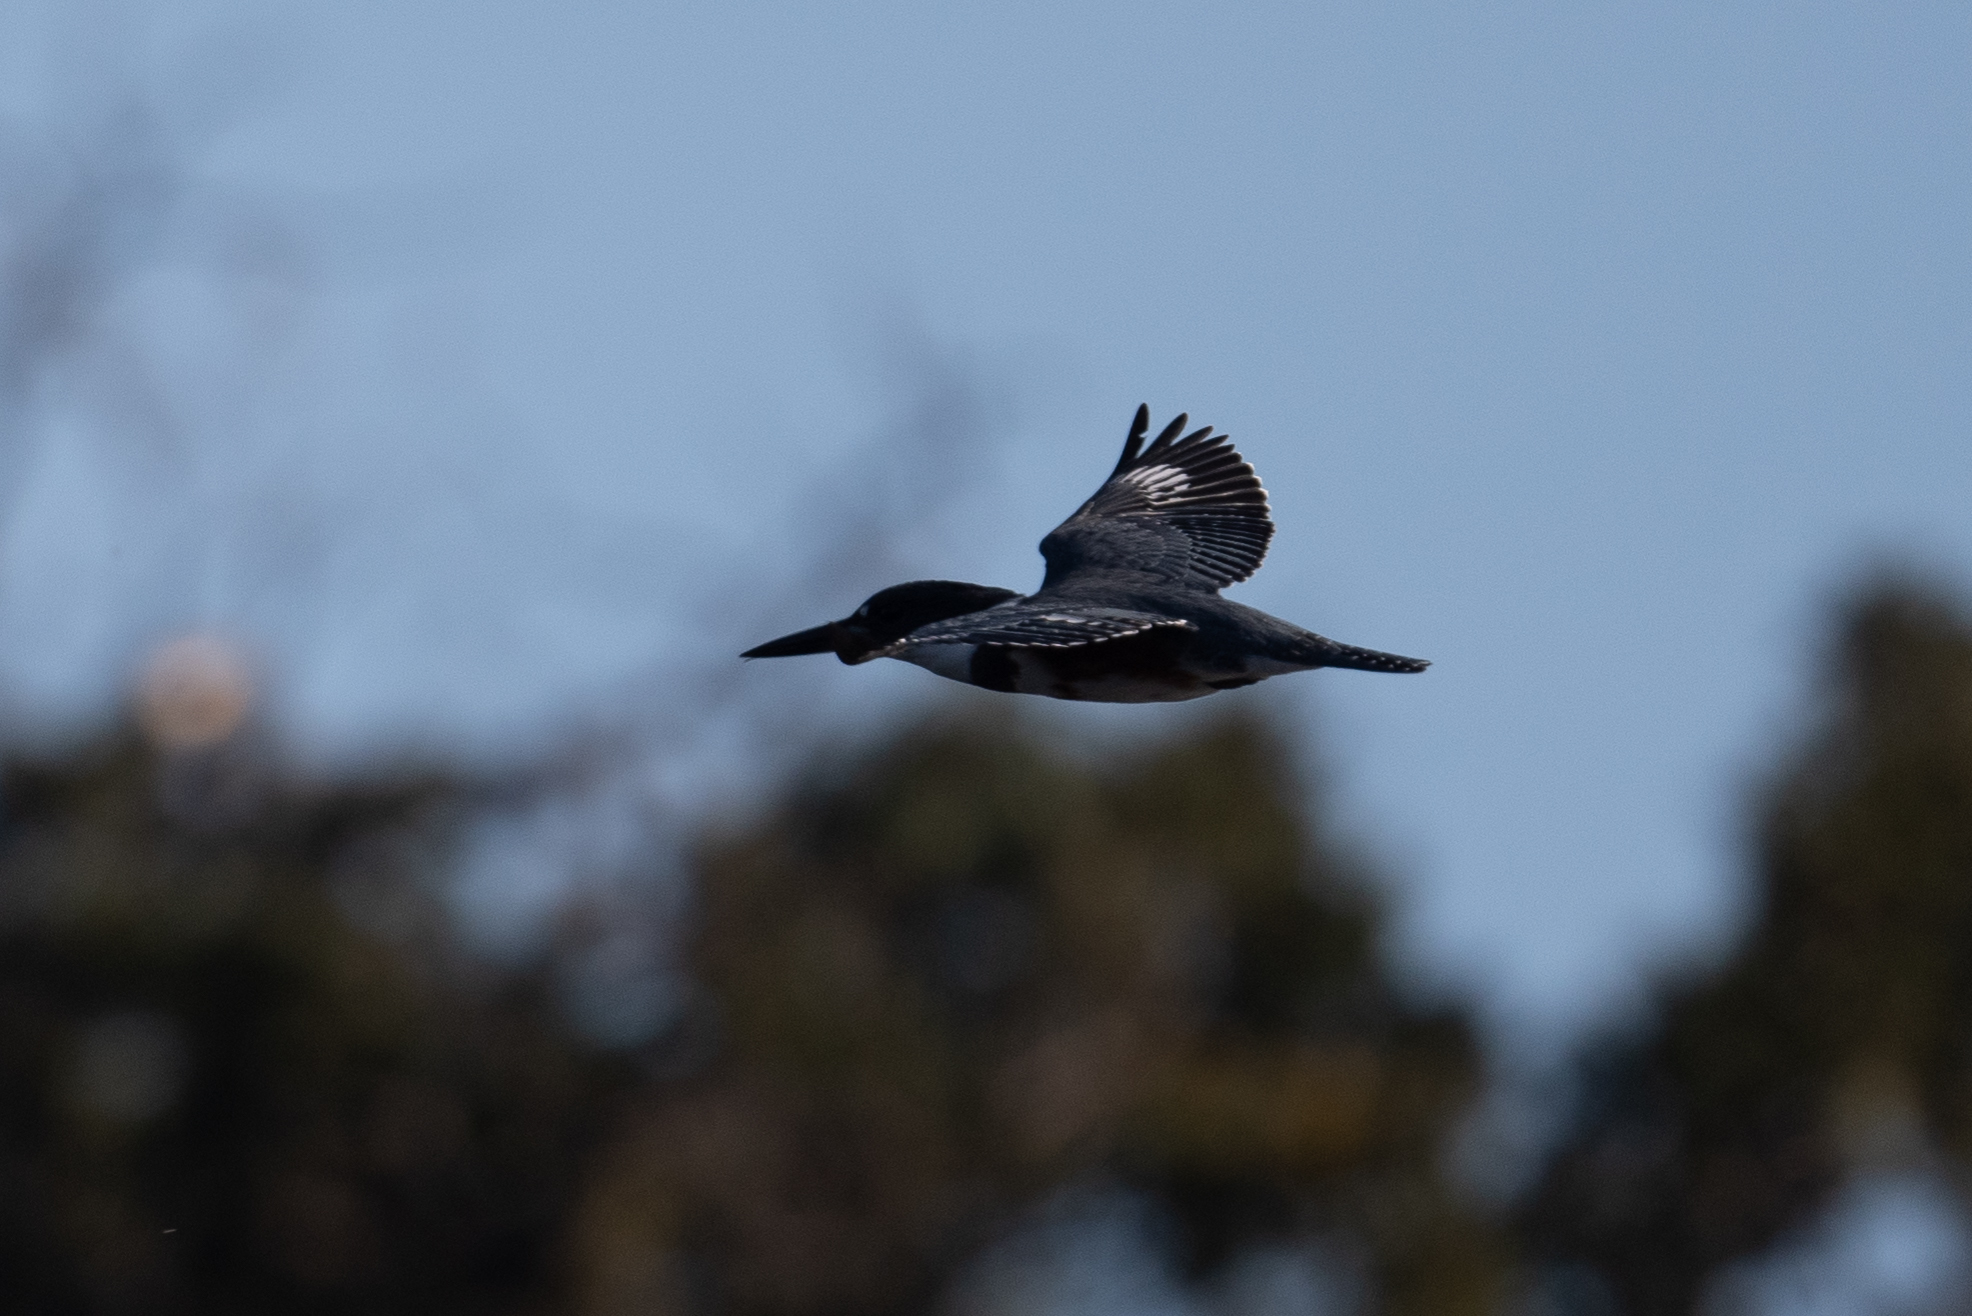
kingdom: Animalia
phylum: Chordata
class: Aves
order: Coraciiformes
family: Alcedinidae
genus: Megaceryle
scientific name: Megaceryle alcyon
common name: Belted kingfisher
